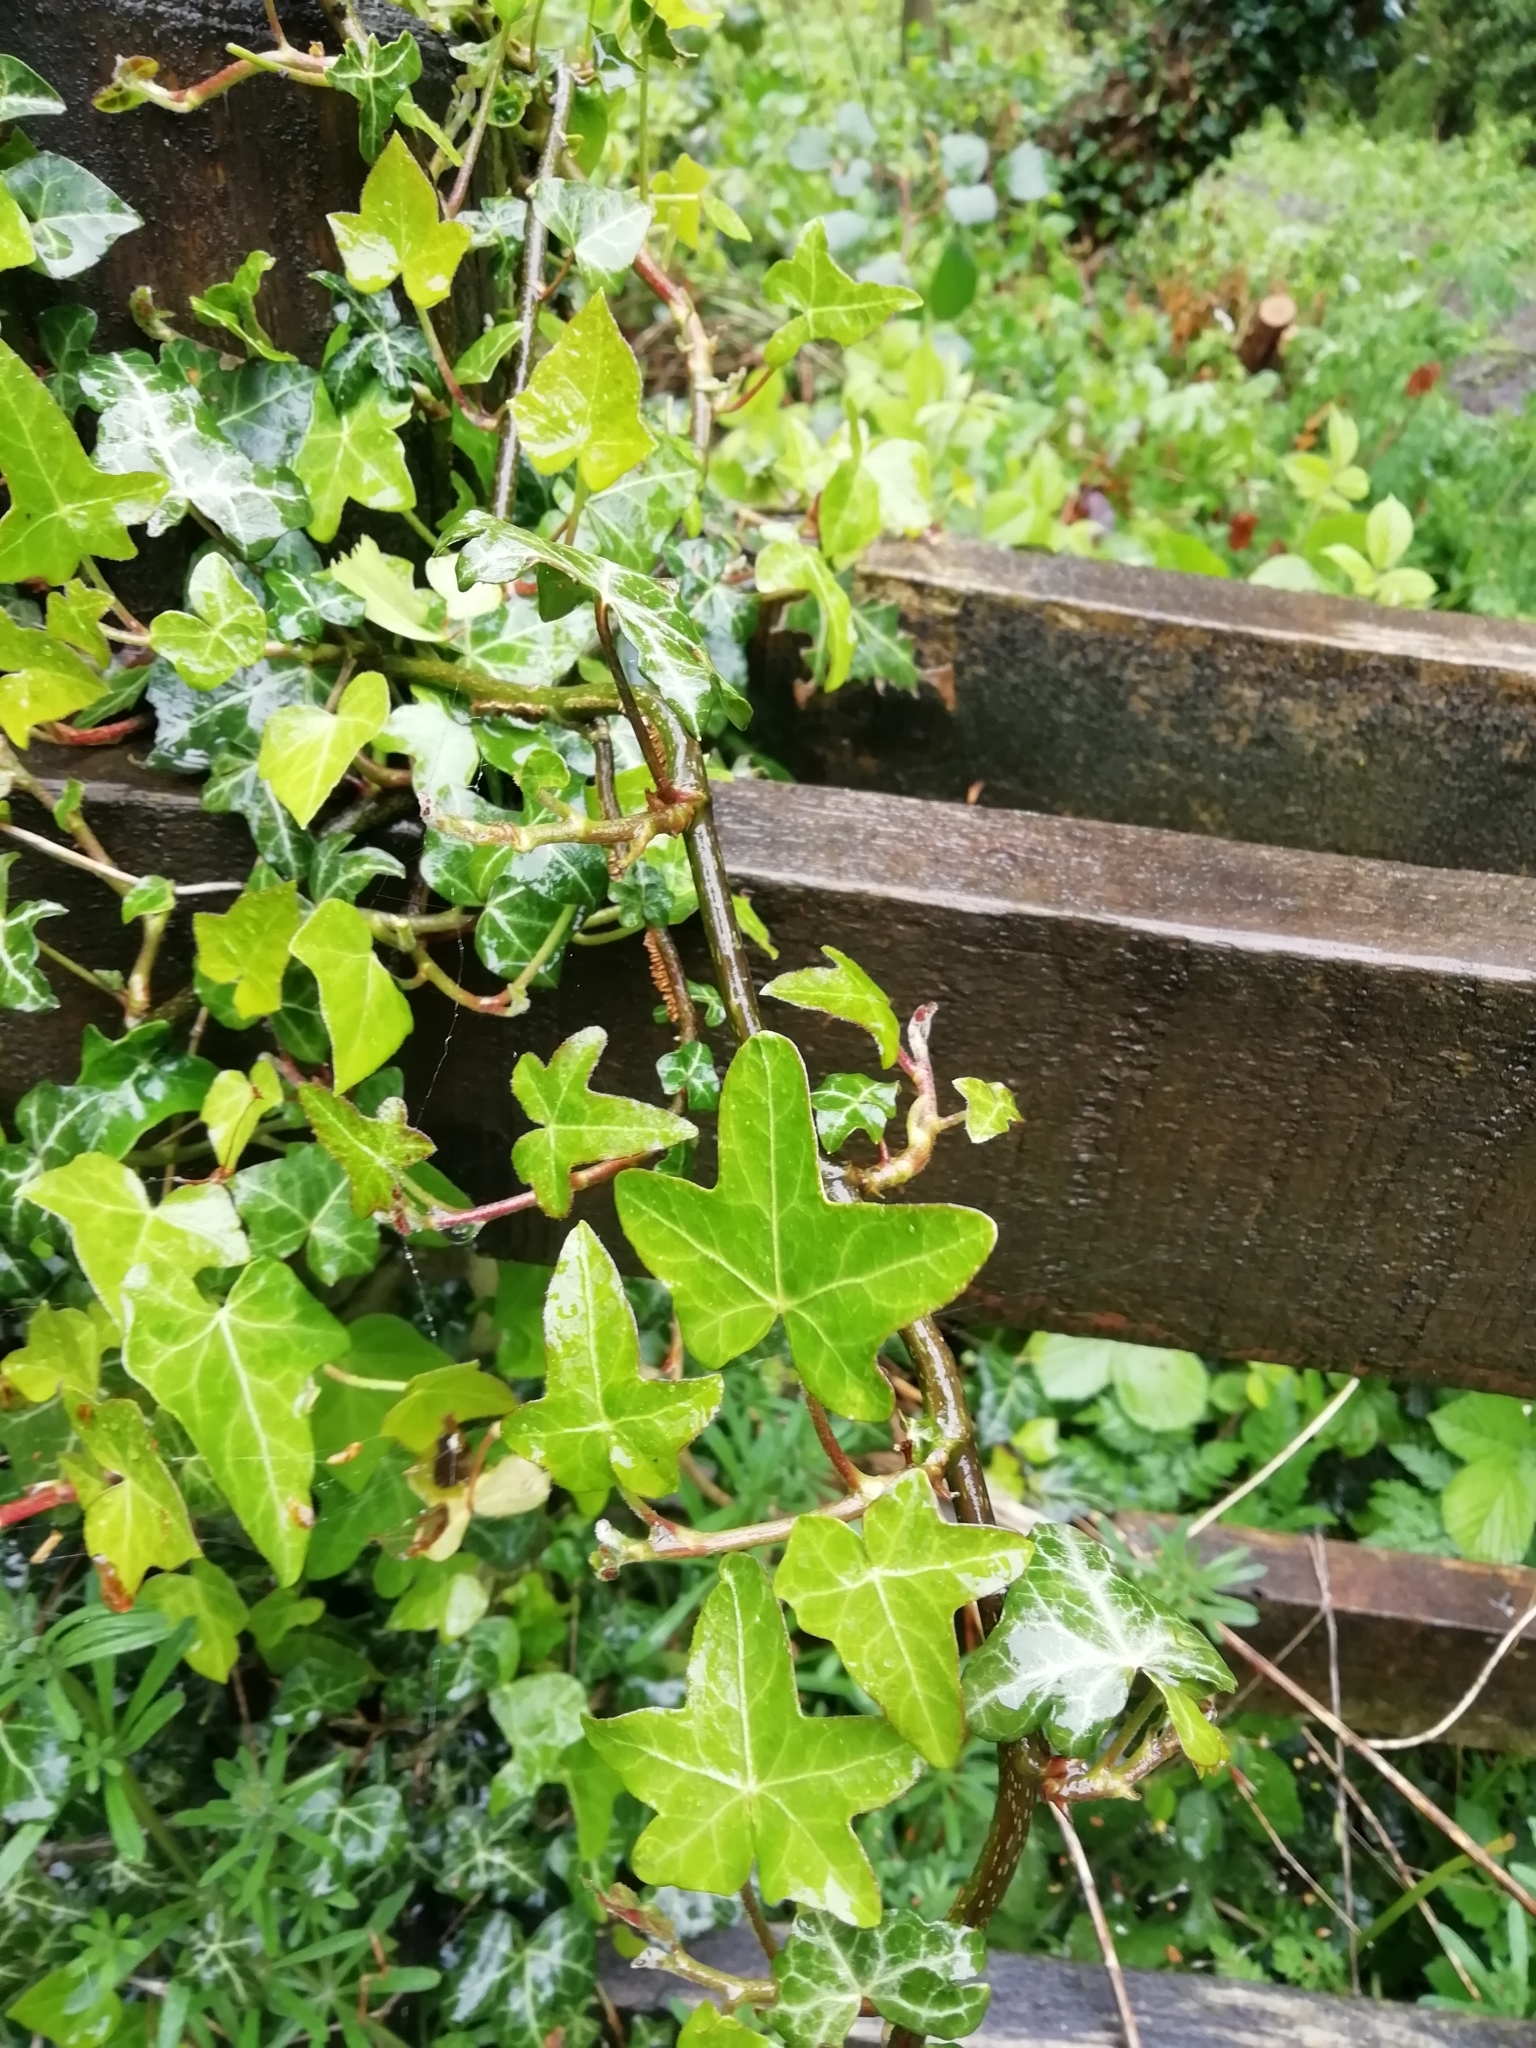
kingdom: Plantae
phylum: Tracheophyta
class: Magnoliopsida
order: Apiales
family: Araliaceae
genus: Hedera
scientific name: Hedera helix
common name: Ivy
